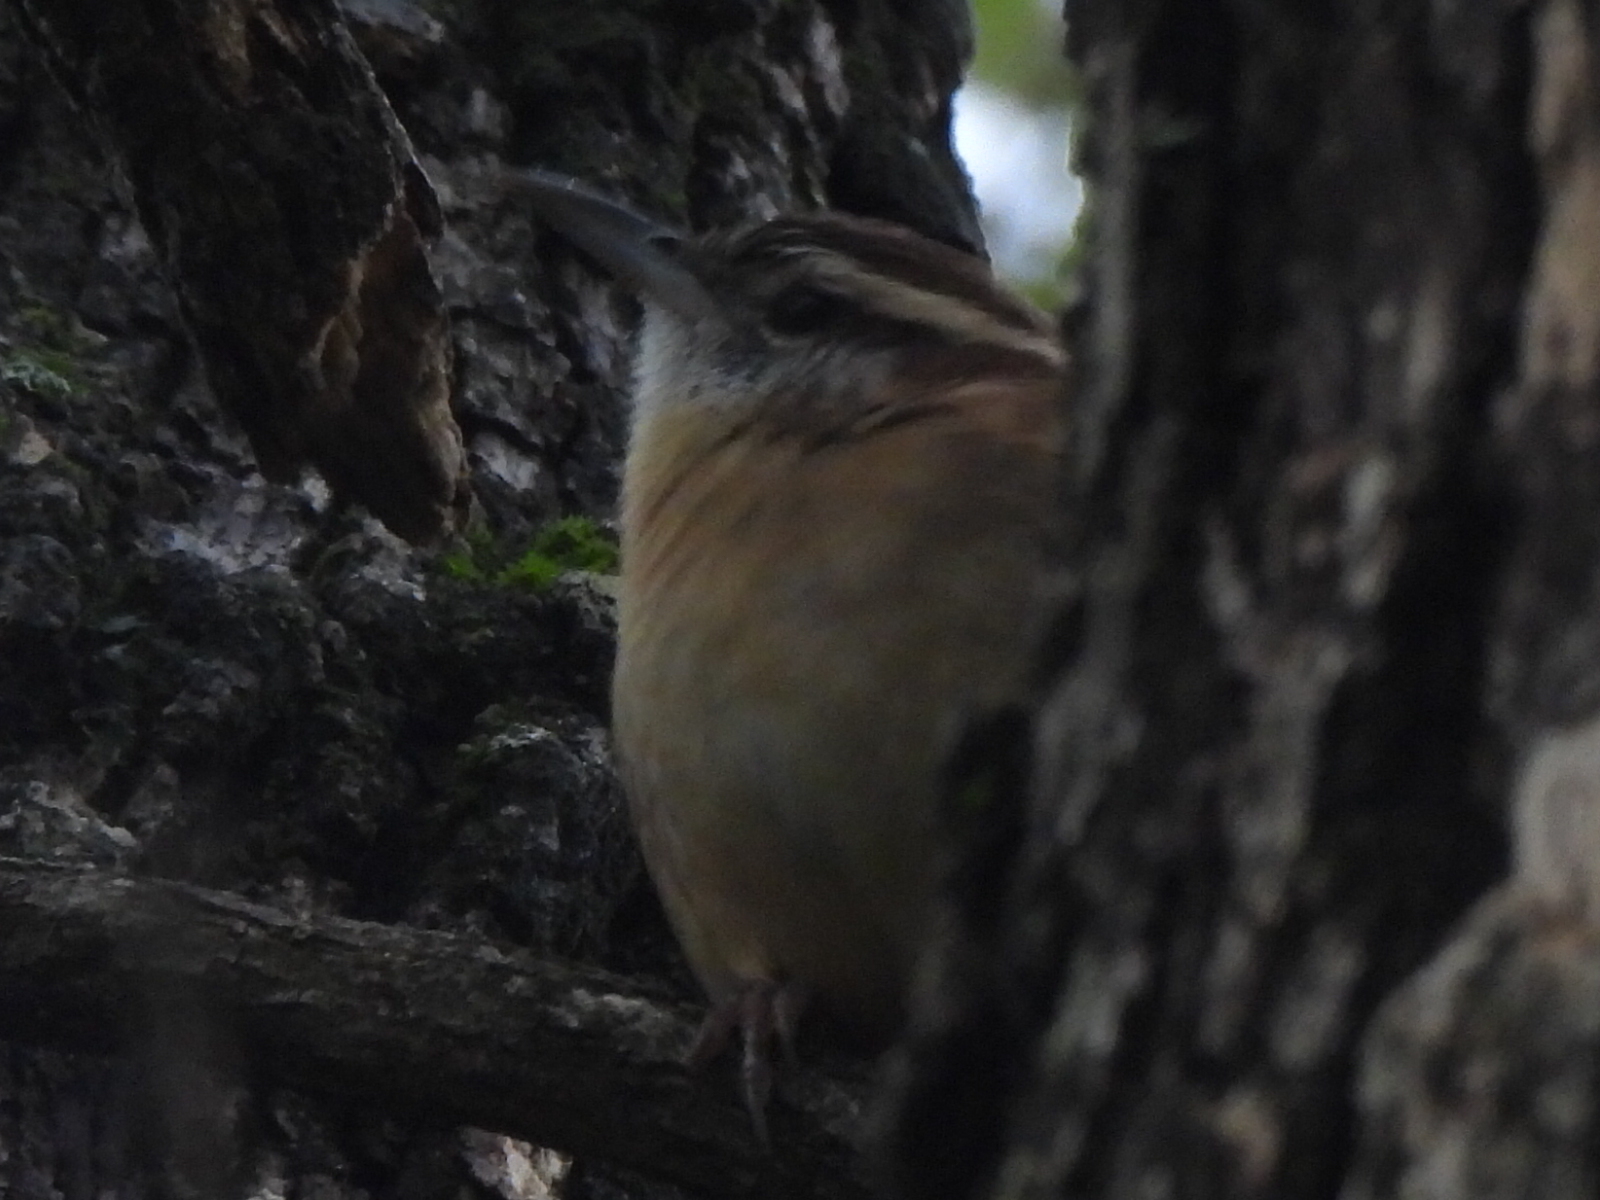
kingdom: Animalia
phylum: Chordata
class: Aves
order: Passeriformes
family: Troglodytidae
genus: Thryothorus
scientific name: Thryothorus ludovicianus
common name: Carolina wren
